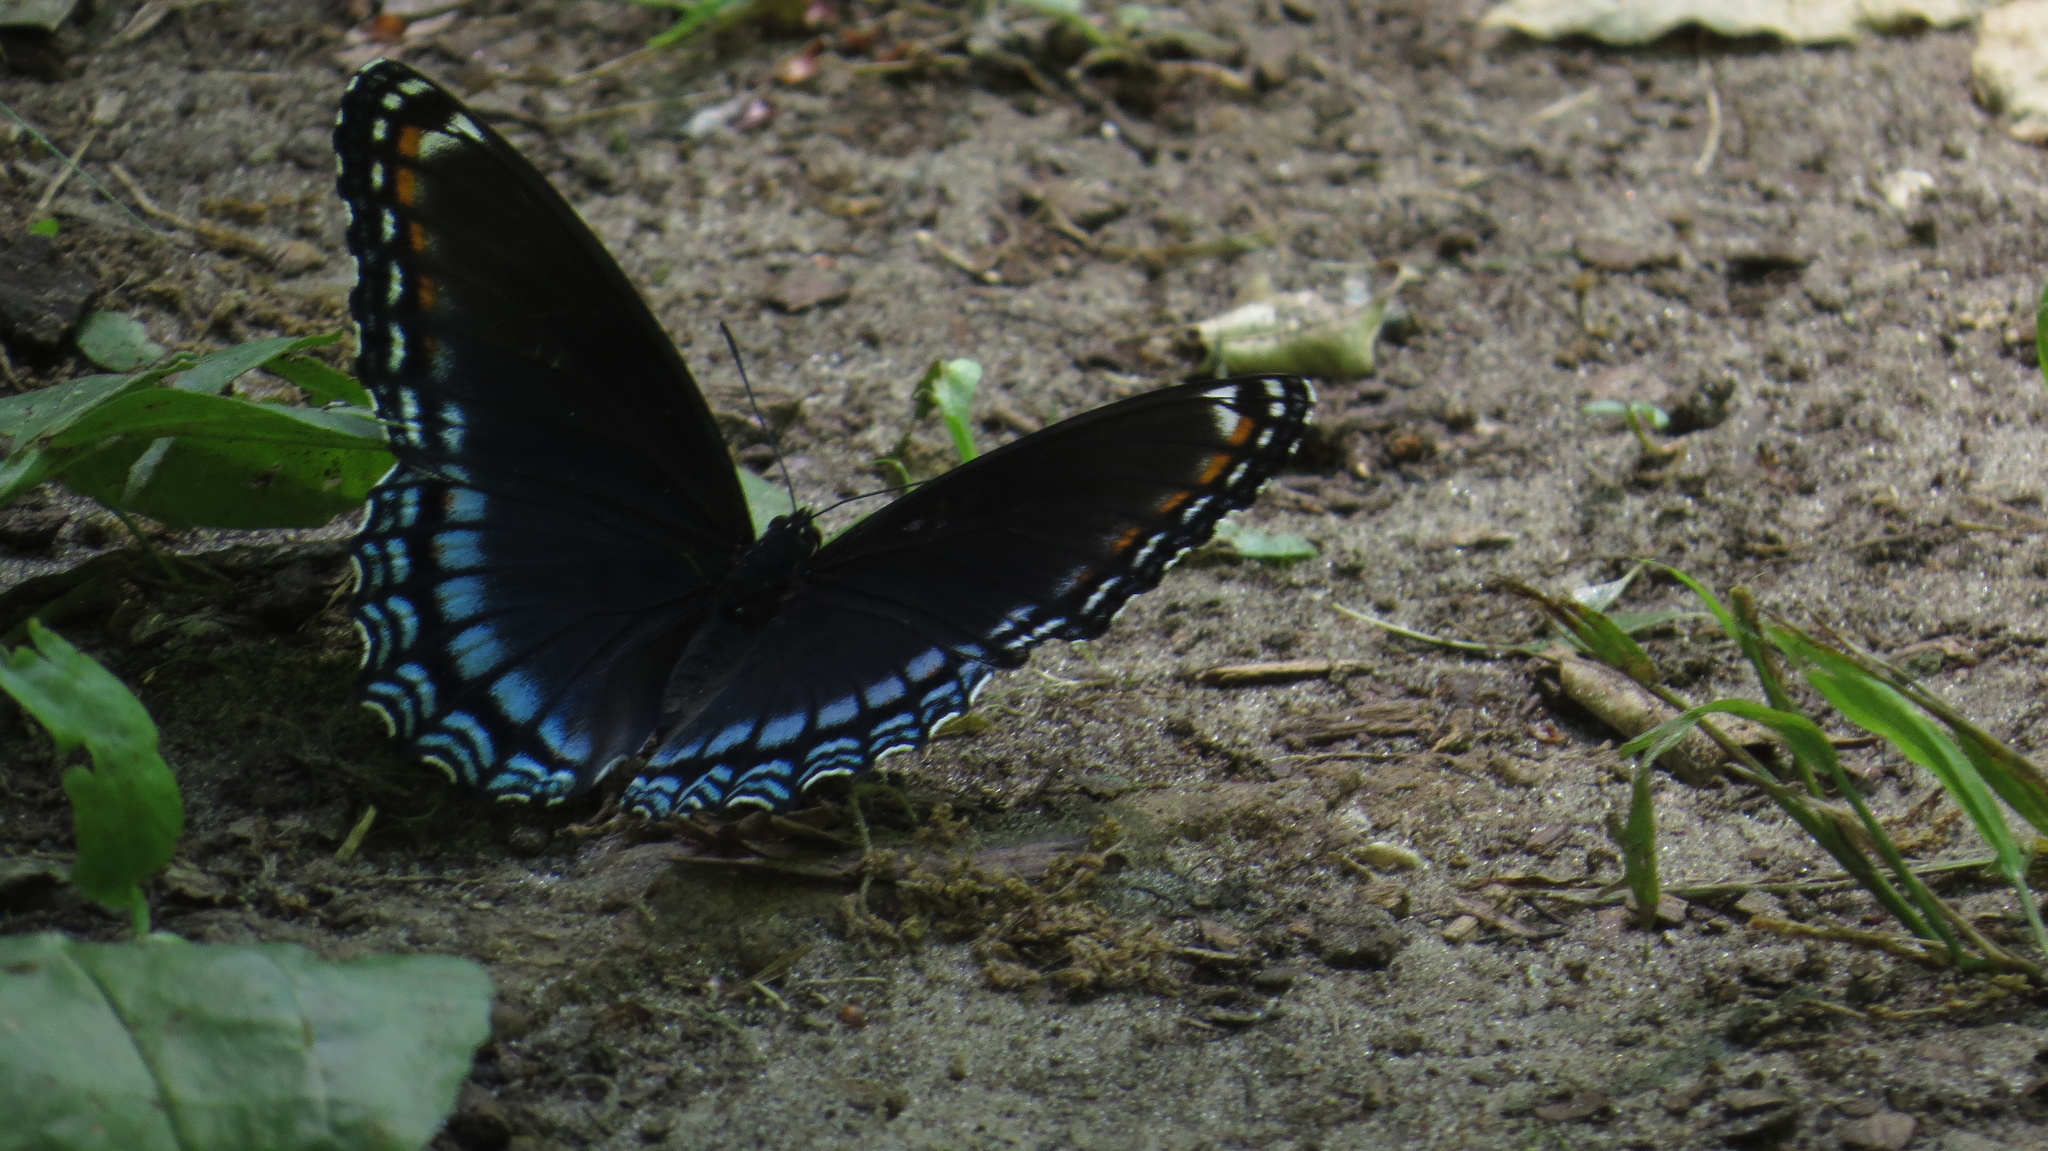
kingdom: Animalia
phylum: Arthropoda
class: Insecta
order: Lepidoptera
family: Nymphalidae
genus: Limenitis
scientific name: Limenitis astyanax
